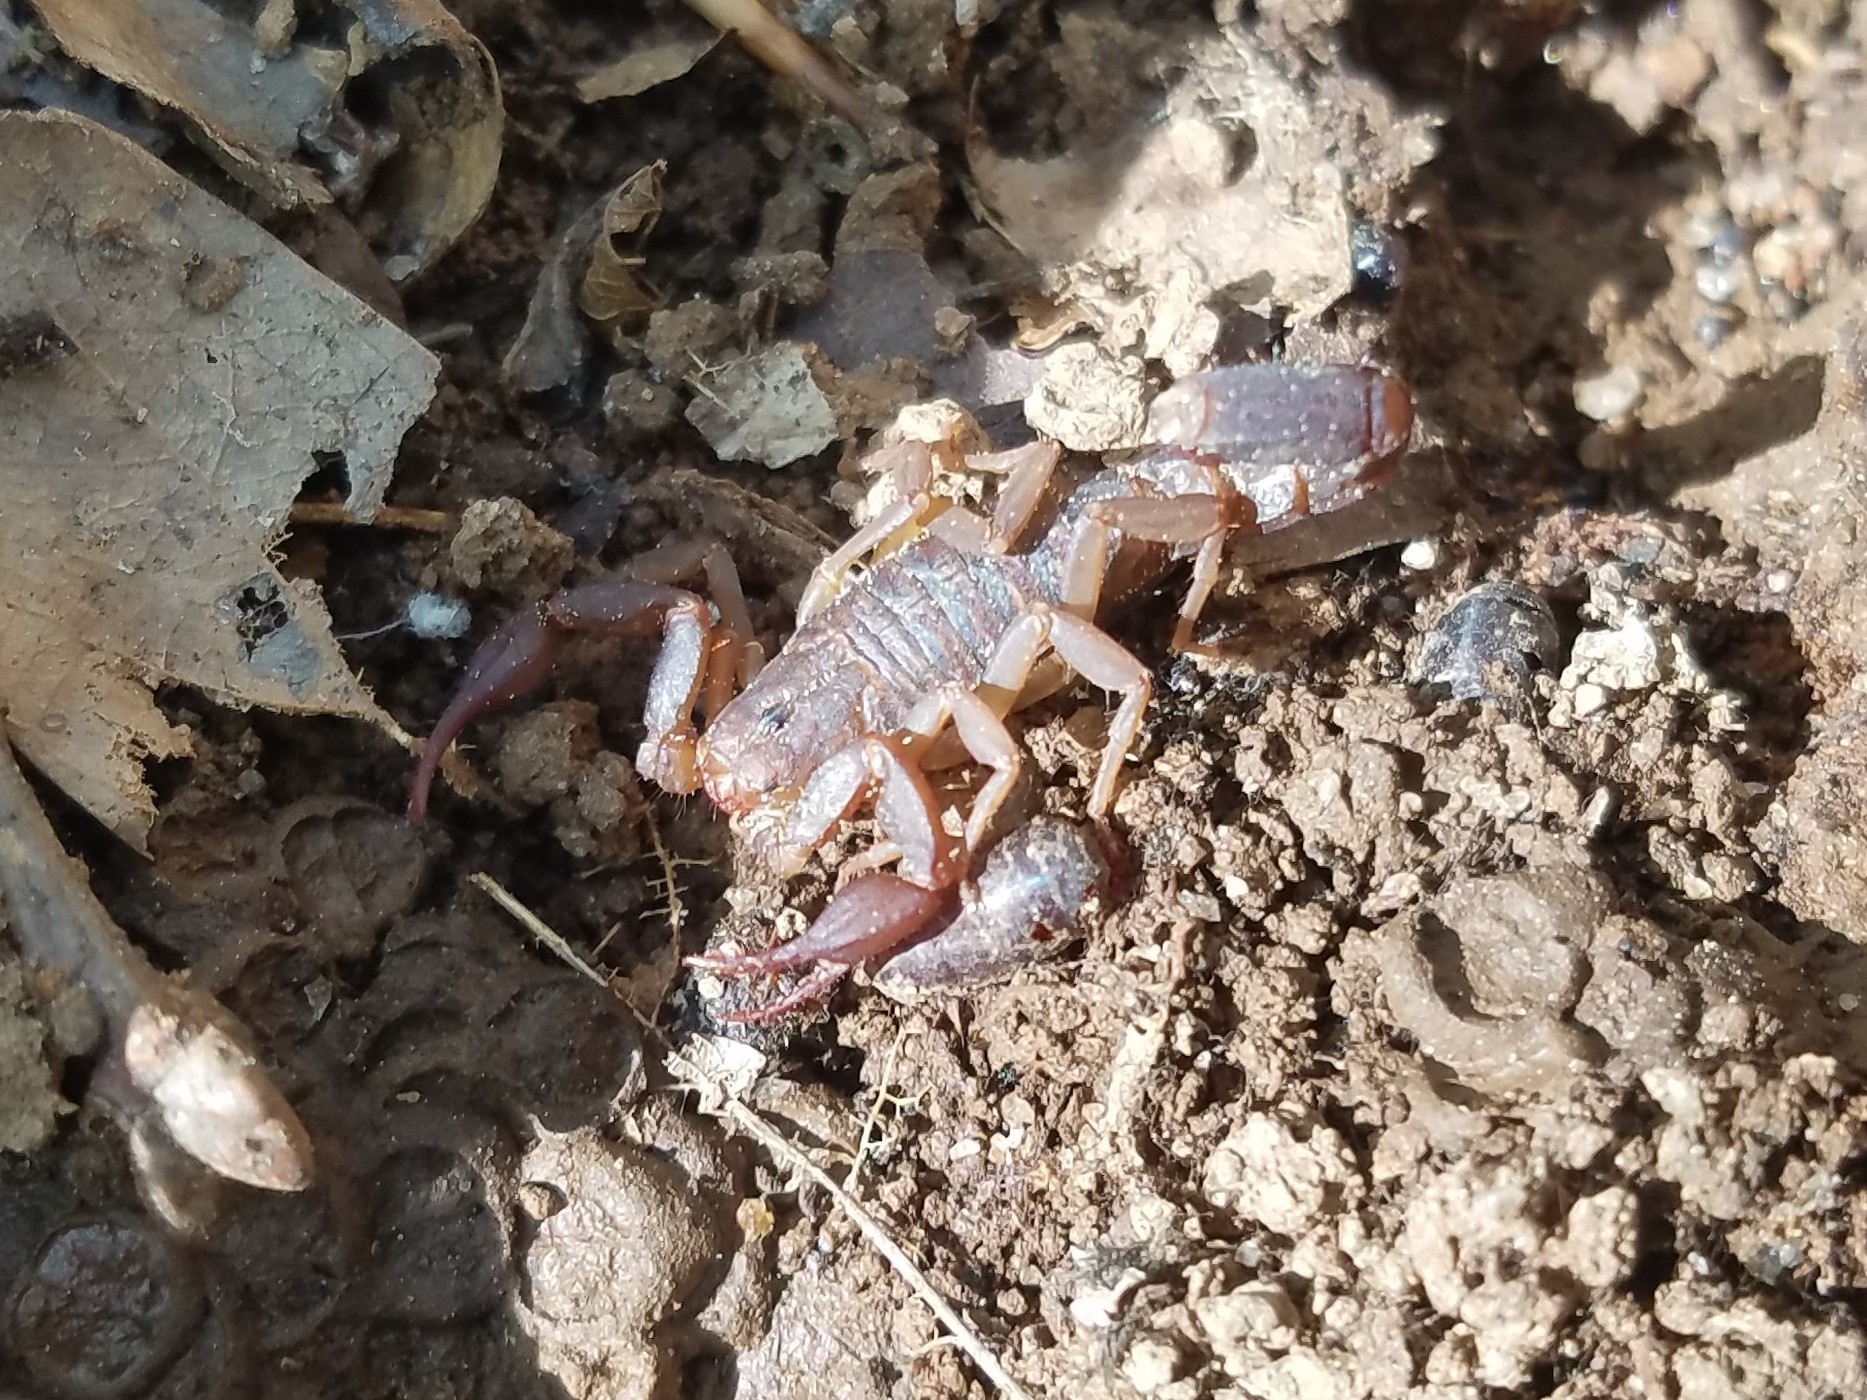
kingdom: Animalia
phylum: Arthropoda
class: Arachnida
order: Scorpiones
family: Vaejovidae
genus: Vaejovis
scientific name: Vaejovis carolinianus
